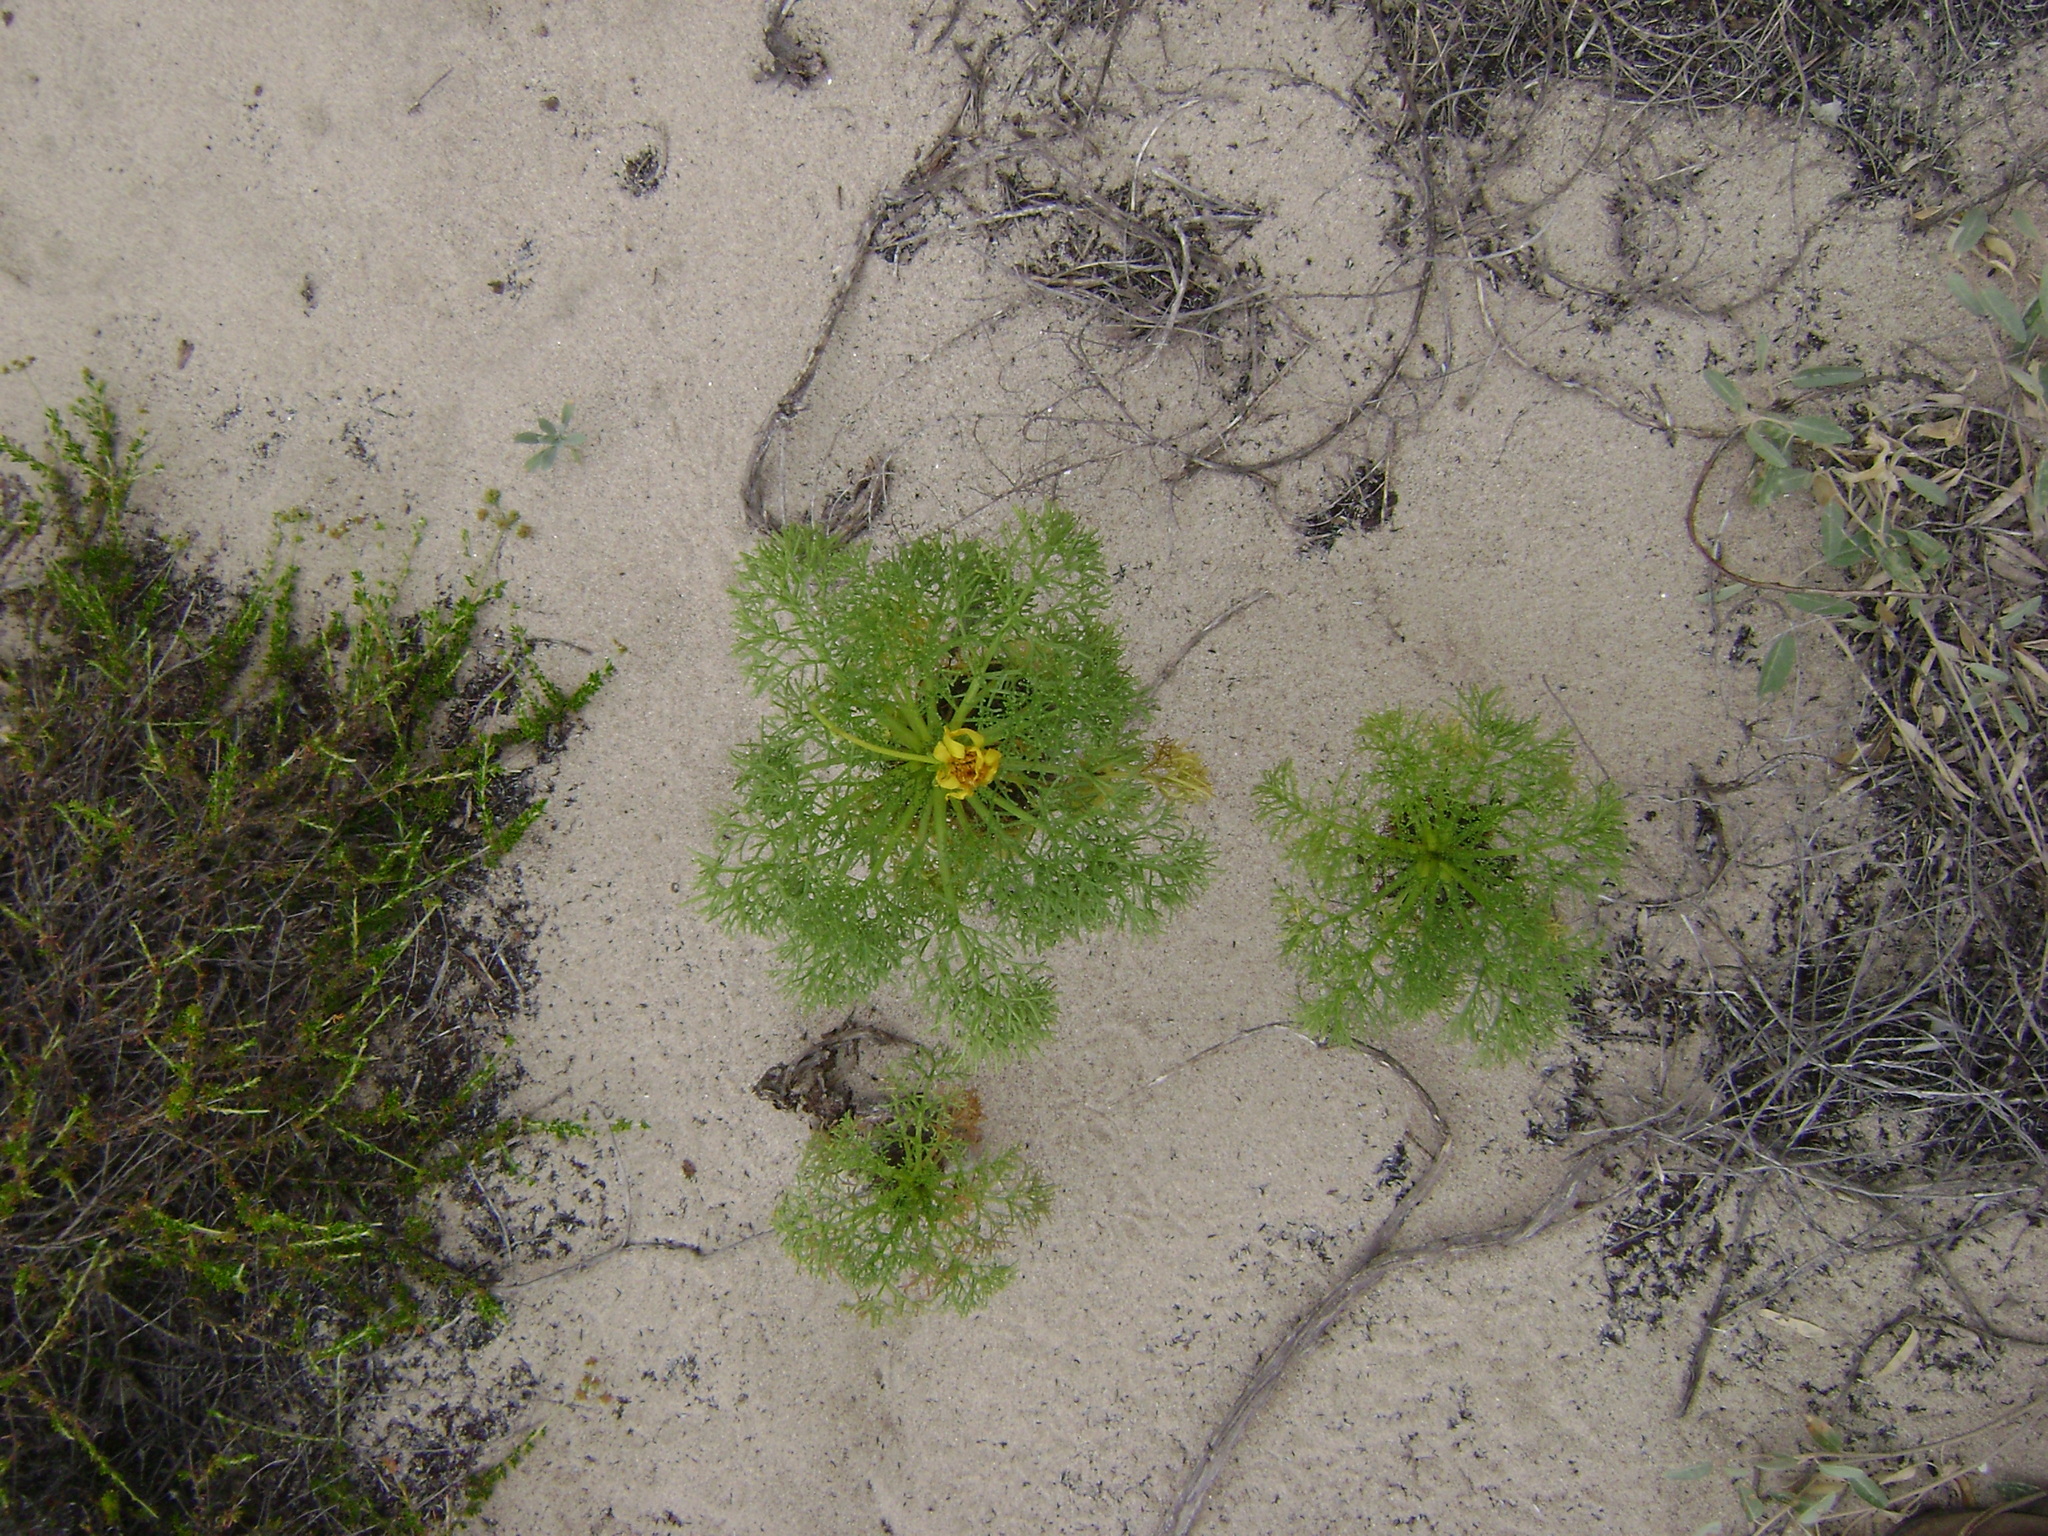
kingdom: Plantae
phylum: Tracheophyta
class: Magnoliopsida
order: Asterales
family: Asteraceae
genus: Coreopsis
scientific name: Coreopsis gigantea
